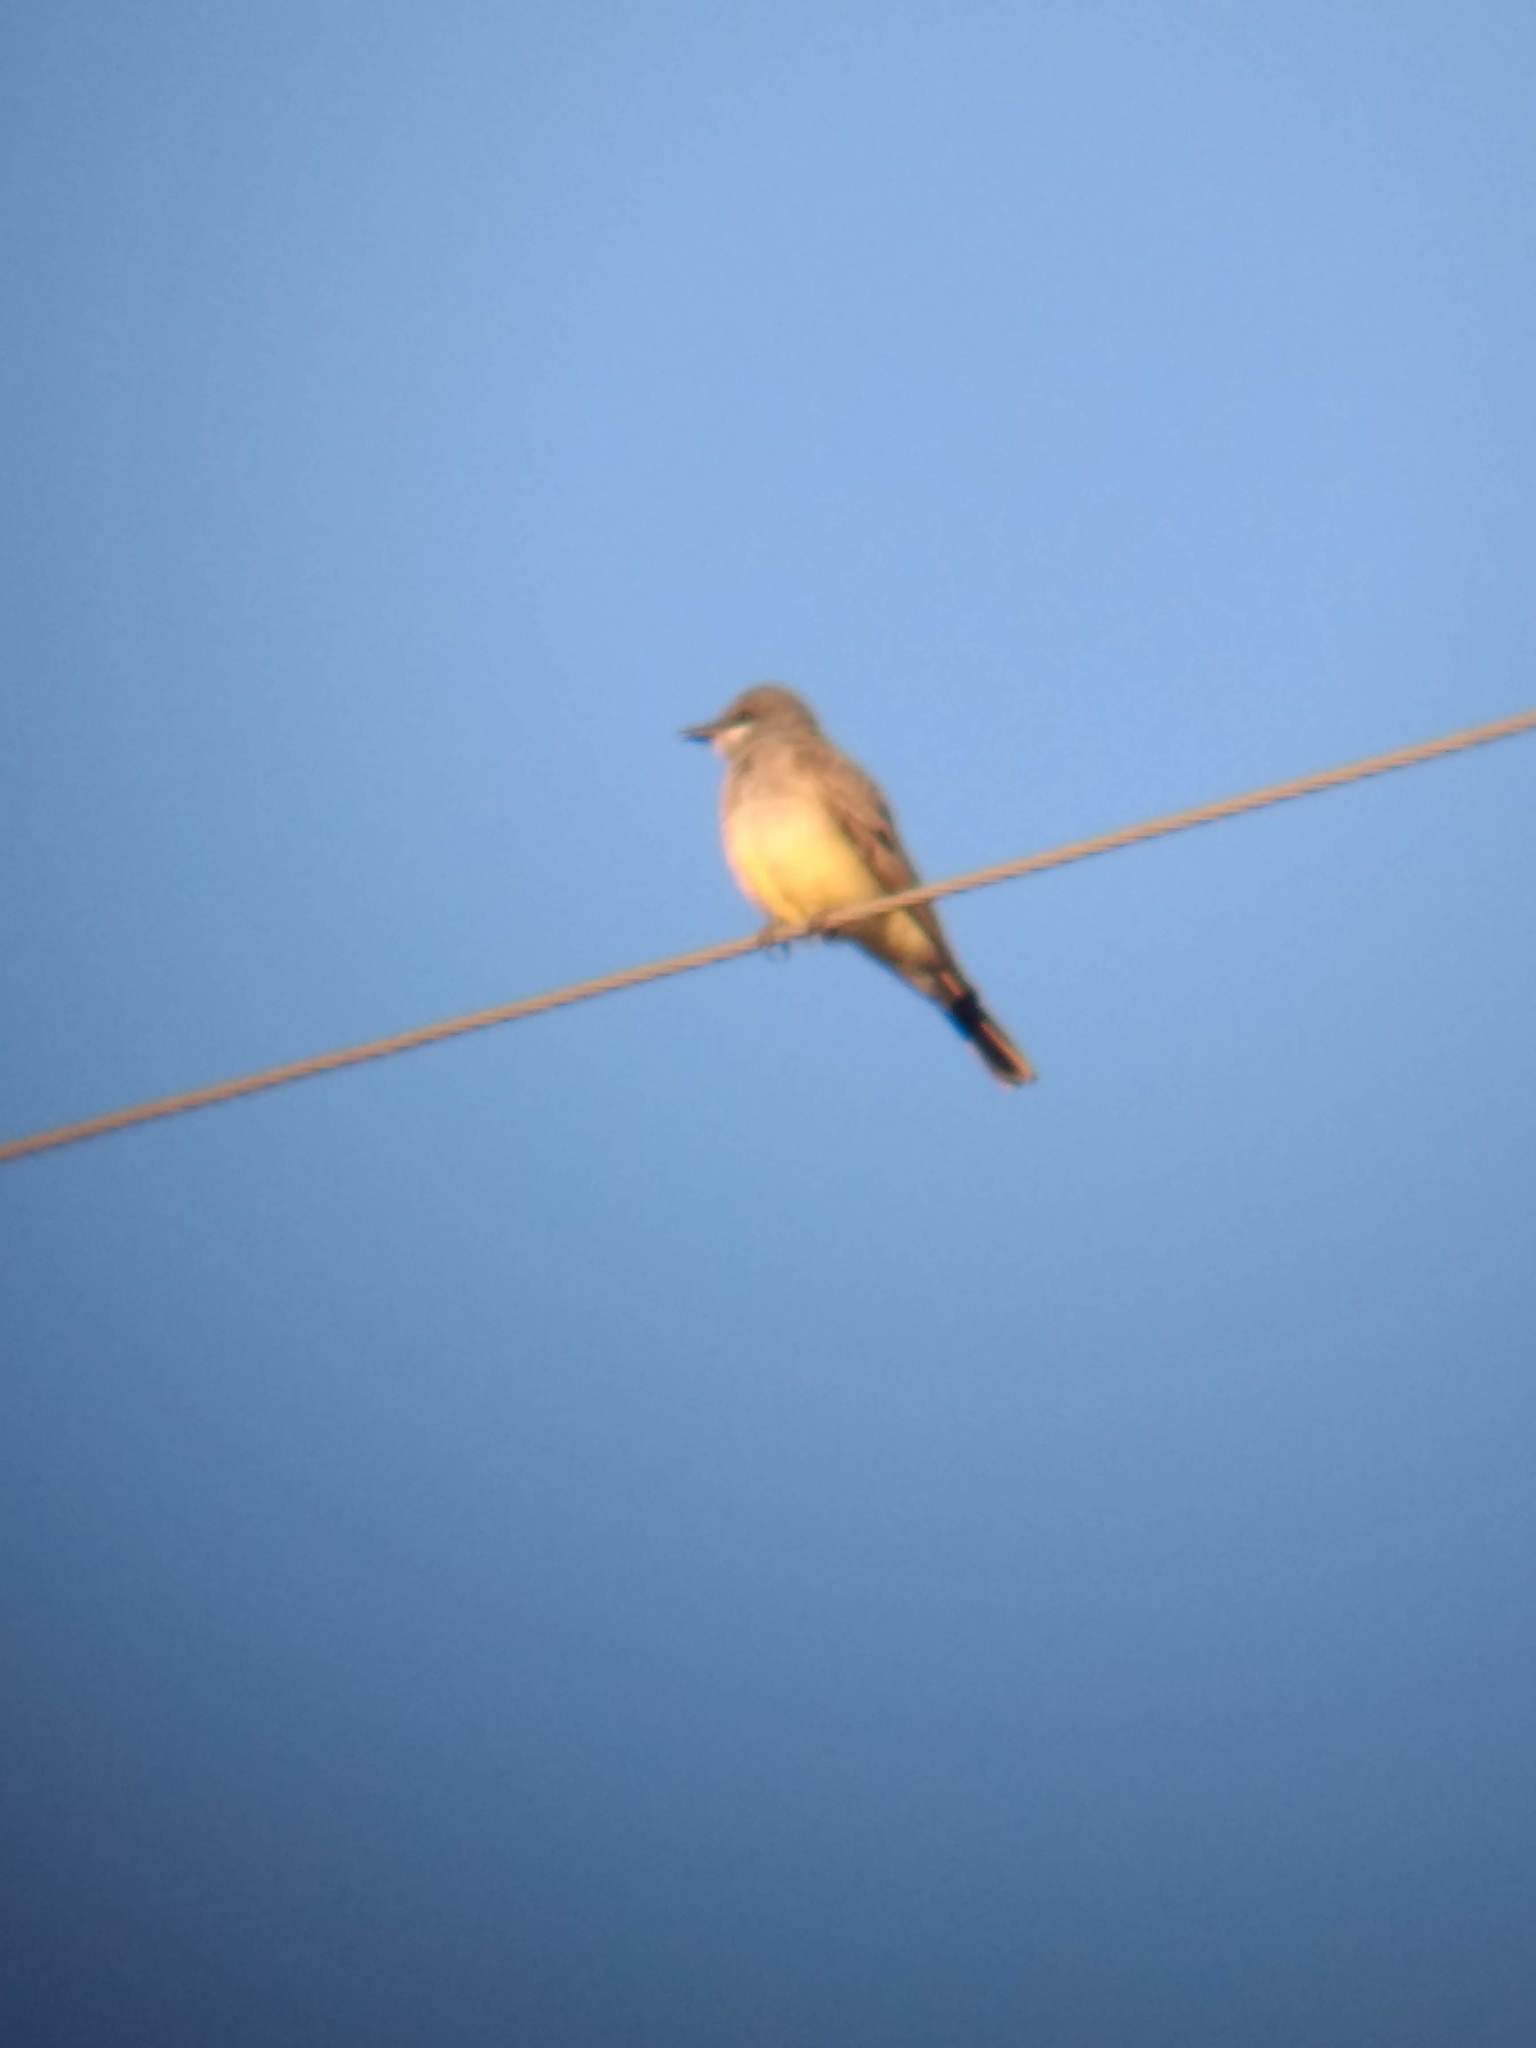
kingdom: Animalia
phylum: Chordata
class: Aves
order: Passeriformes
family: Tyrannidae
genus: Tyrannus
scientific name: Tyrannus vociferans
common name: Cassin's kingbird
